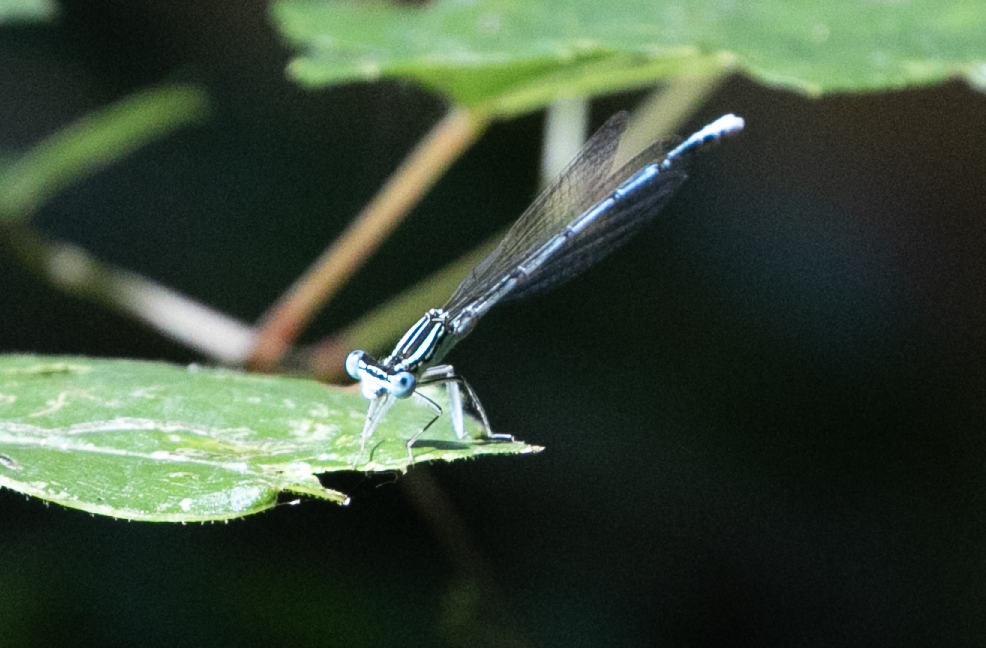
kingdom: Animalia
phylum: Arthropoda
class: Insecta
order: Odonata
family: Platycnemididae
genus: Platycnemis
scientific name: Platycnemis pennipes
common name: White-legged damselfly
